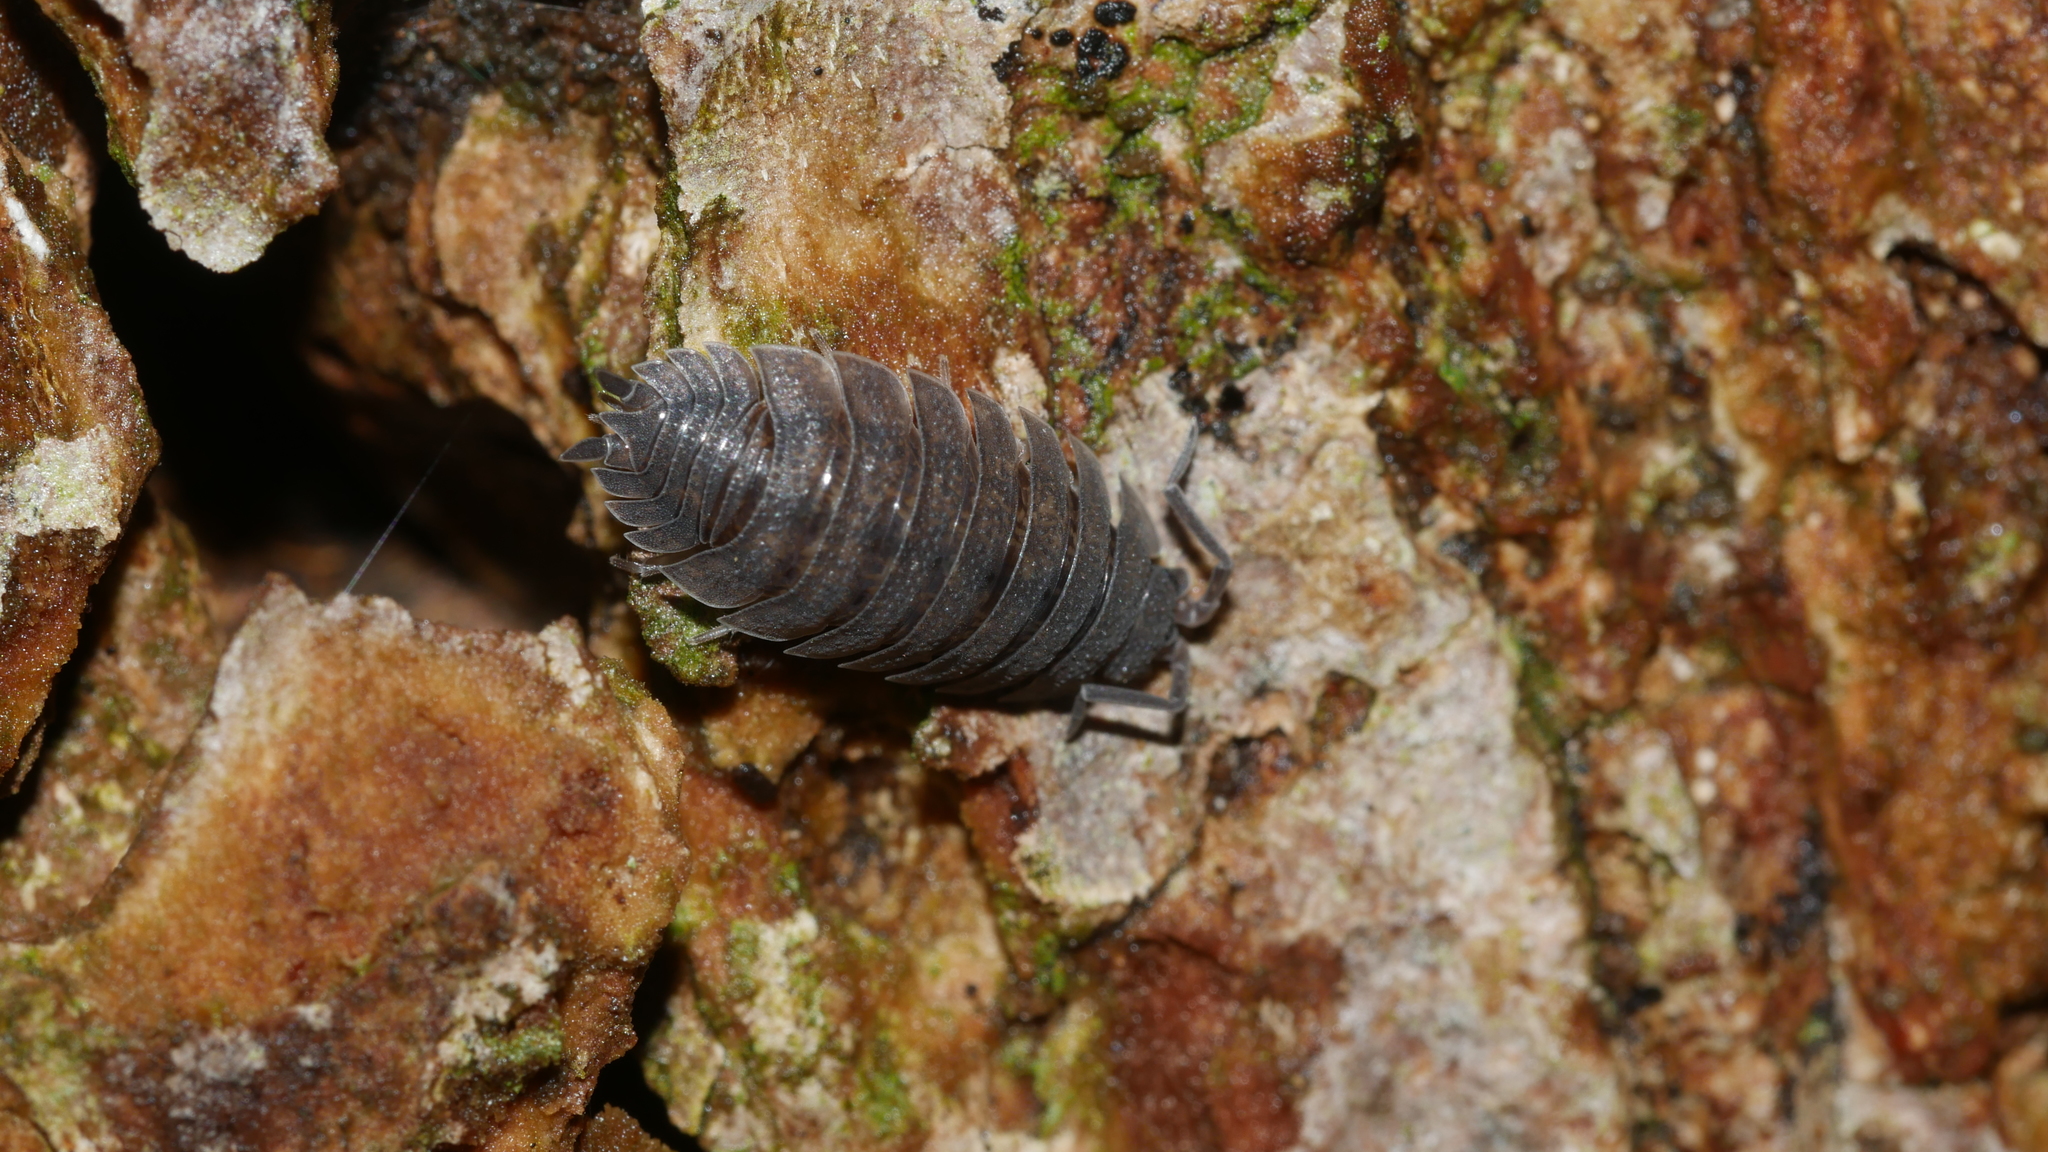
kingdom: Animalia
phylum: Arthropoda
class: Malacostraca
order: Isopoda
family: Porcellionidae
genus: Porcellio
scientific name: Porcellio scaber
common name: Common rough woodlouse
